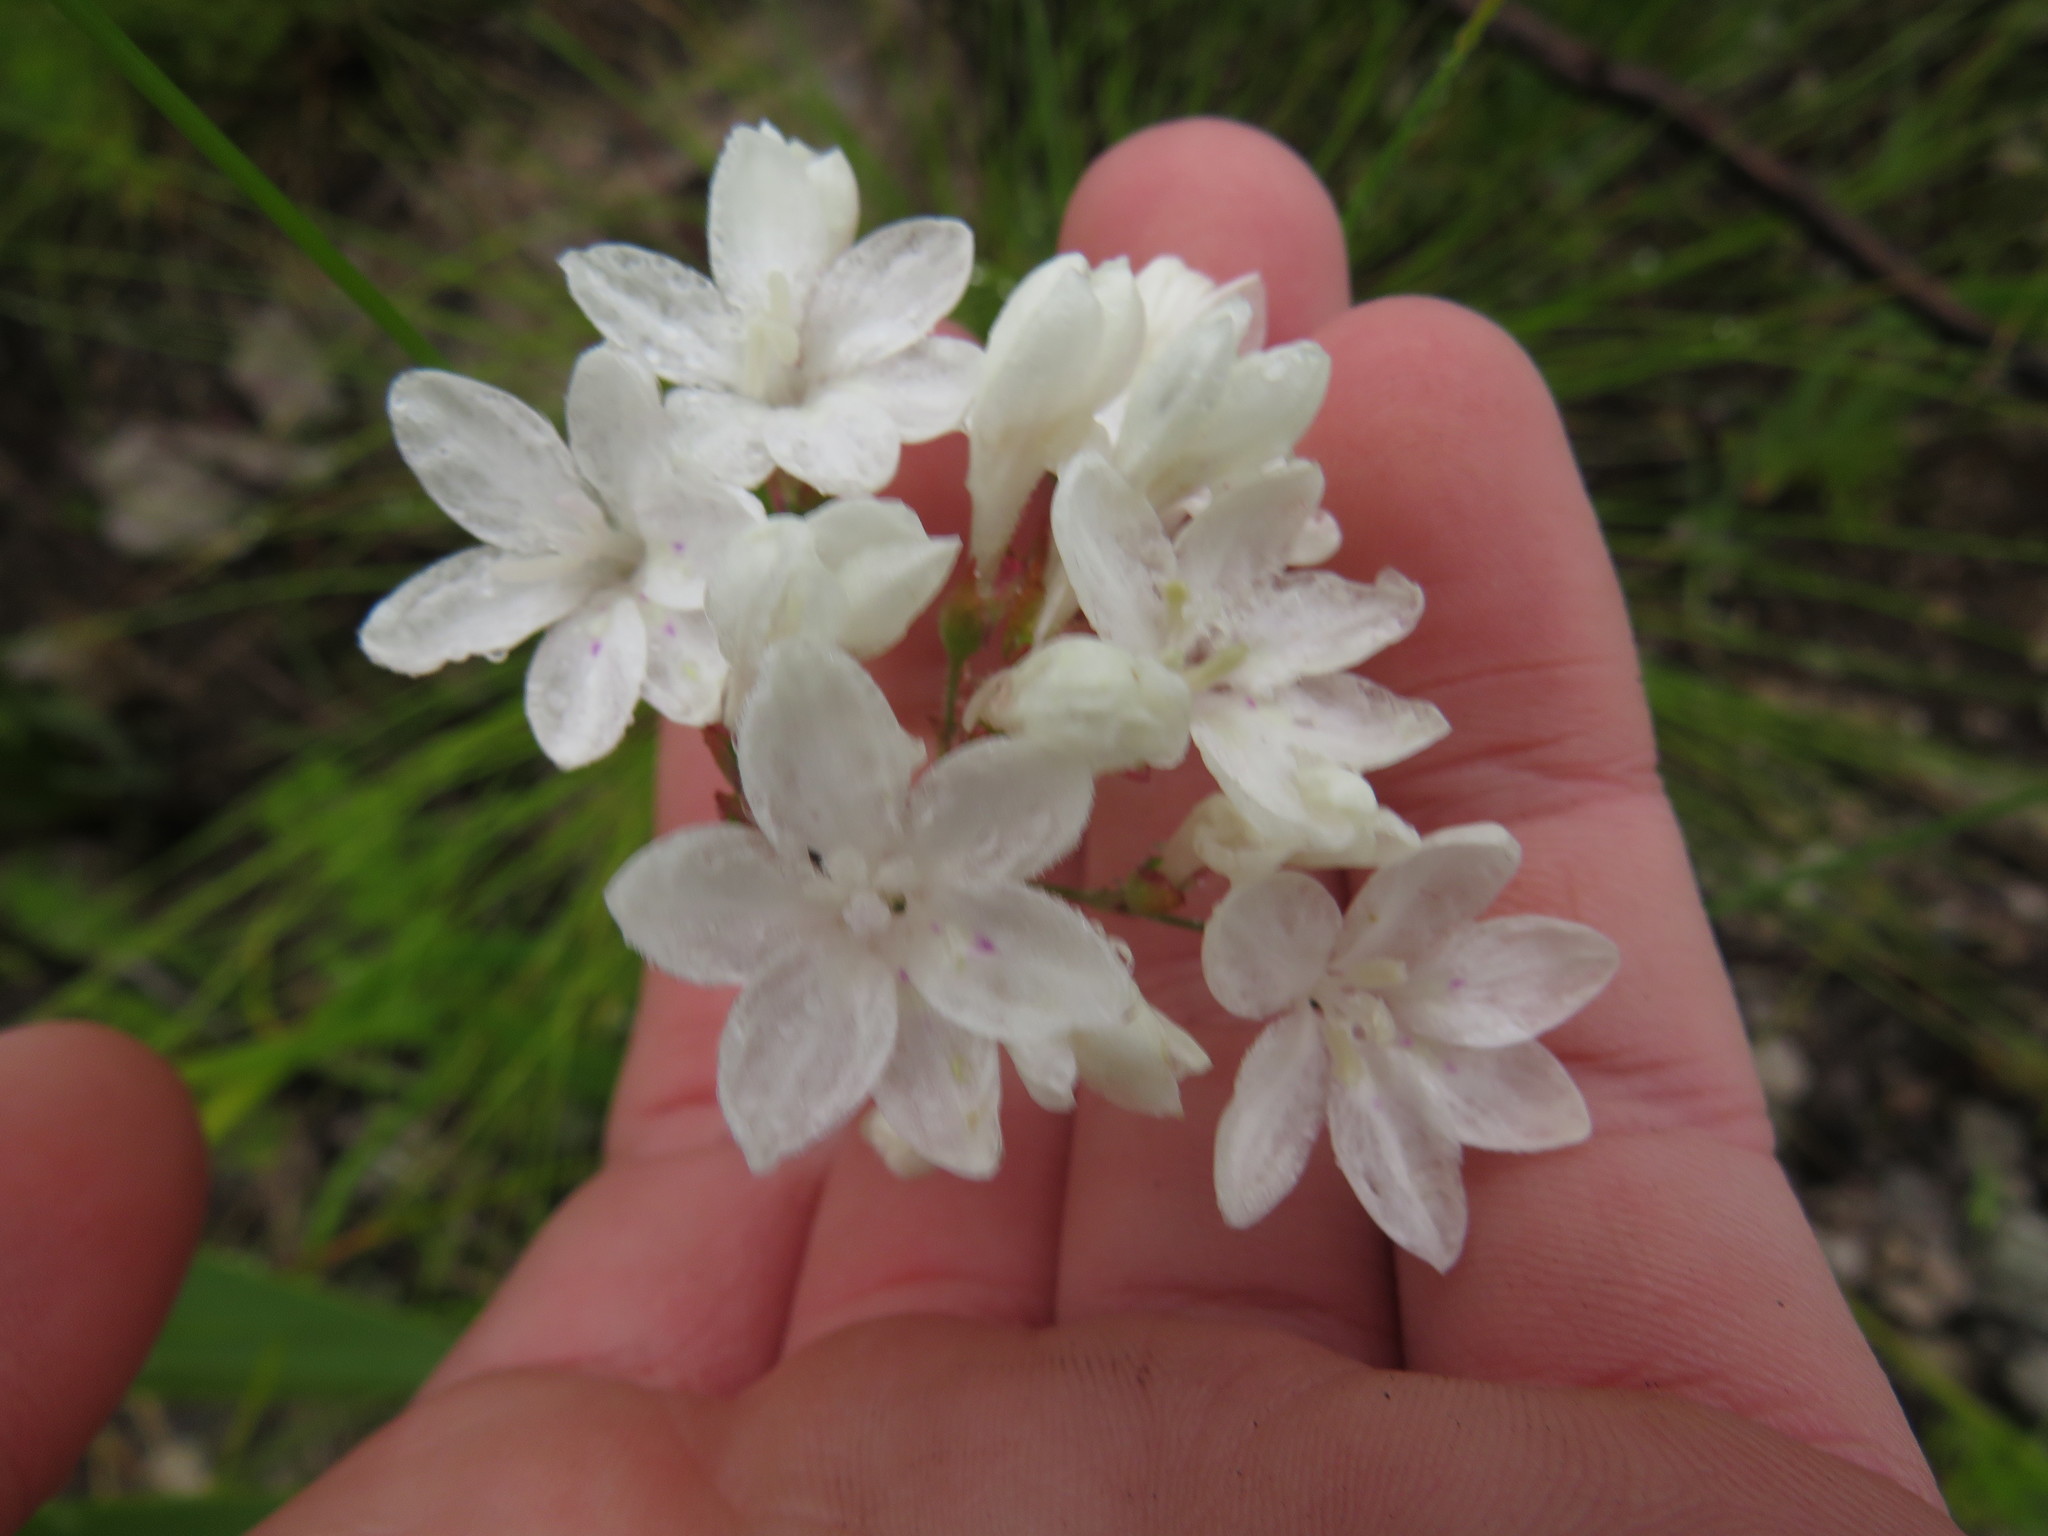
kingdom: Plantae
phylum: Tracheophyta
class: Liliopsida
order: Asparagales
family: Iridaceae
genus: Schizorhiza
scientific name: Schizorhiza neglecta
